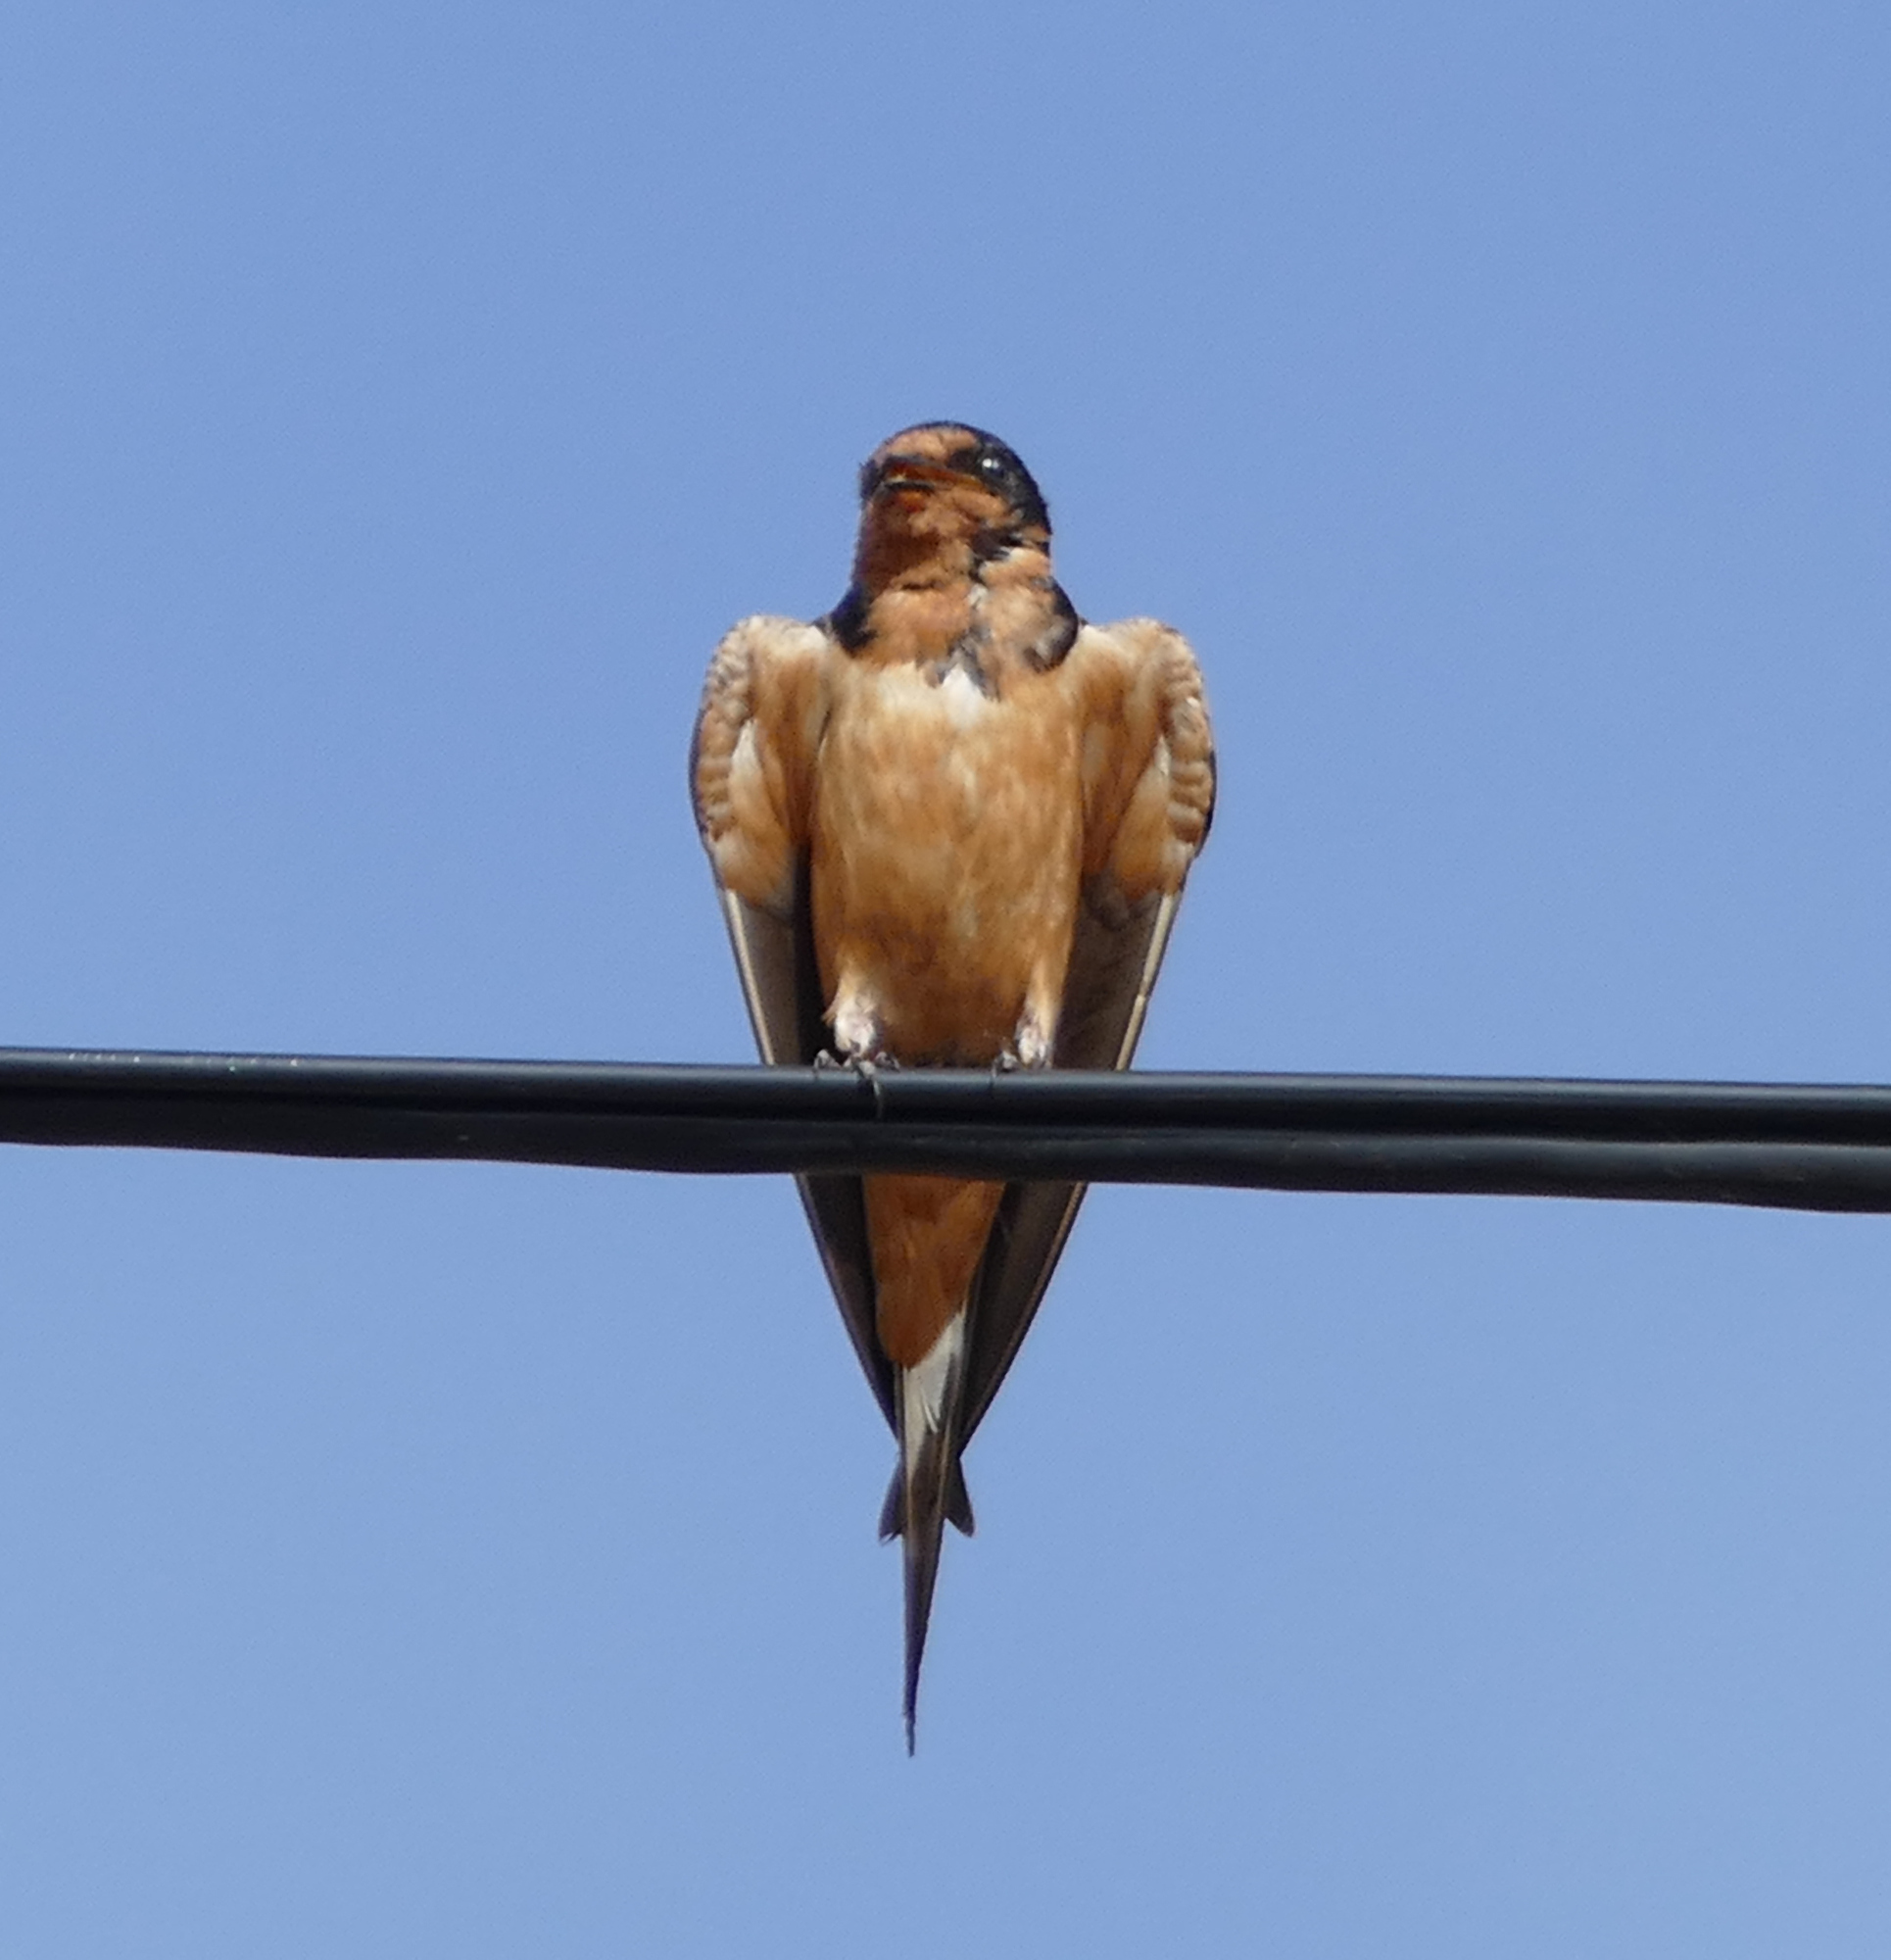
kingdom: Animalia
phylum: Chordata
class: Aves
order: Passeriformes
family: Hirundinidae
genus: Hirundo
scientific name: Hirundo rustica
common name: Barn swallow
